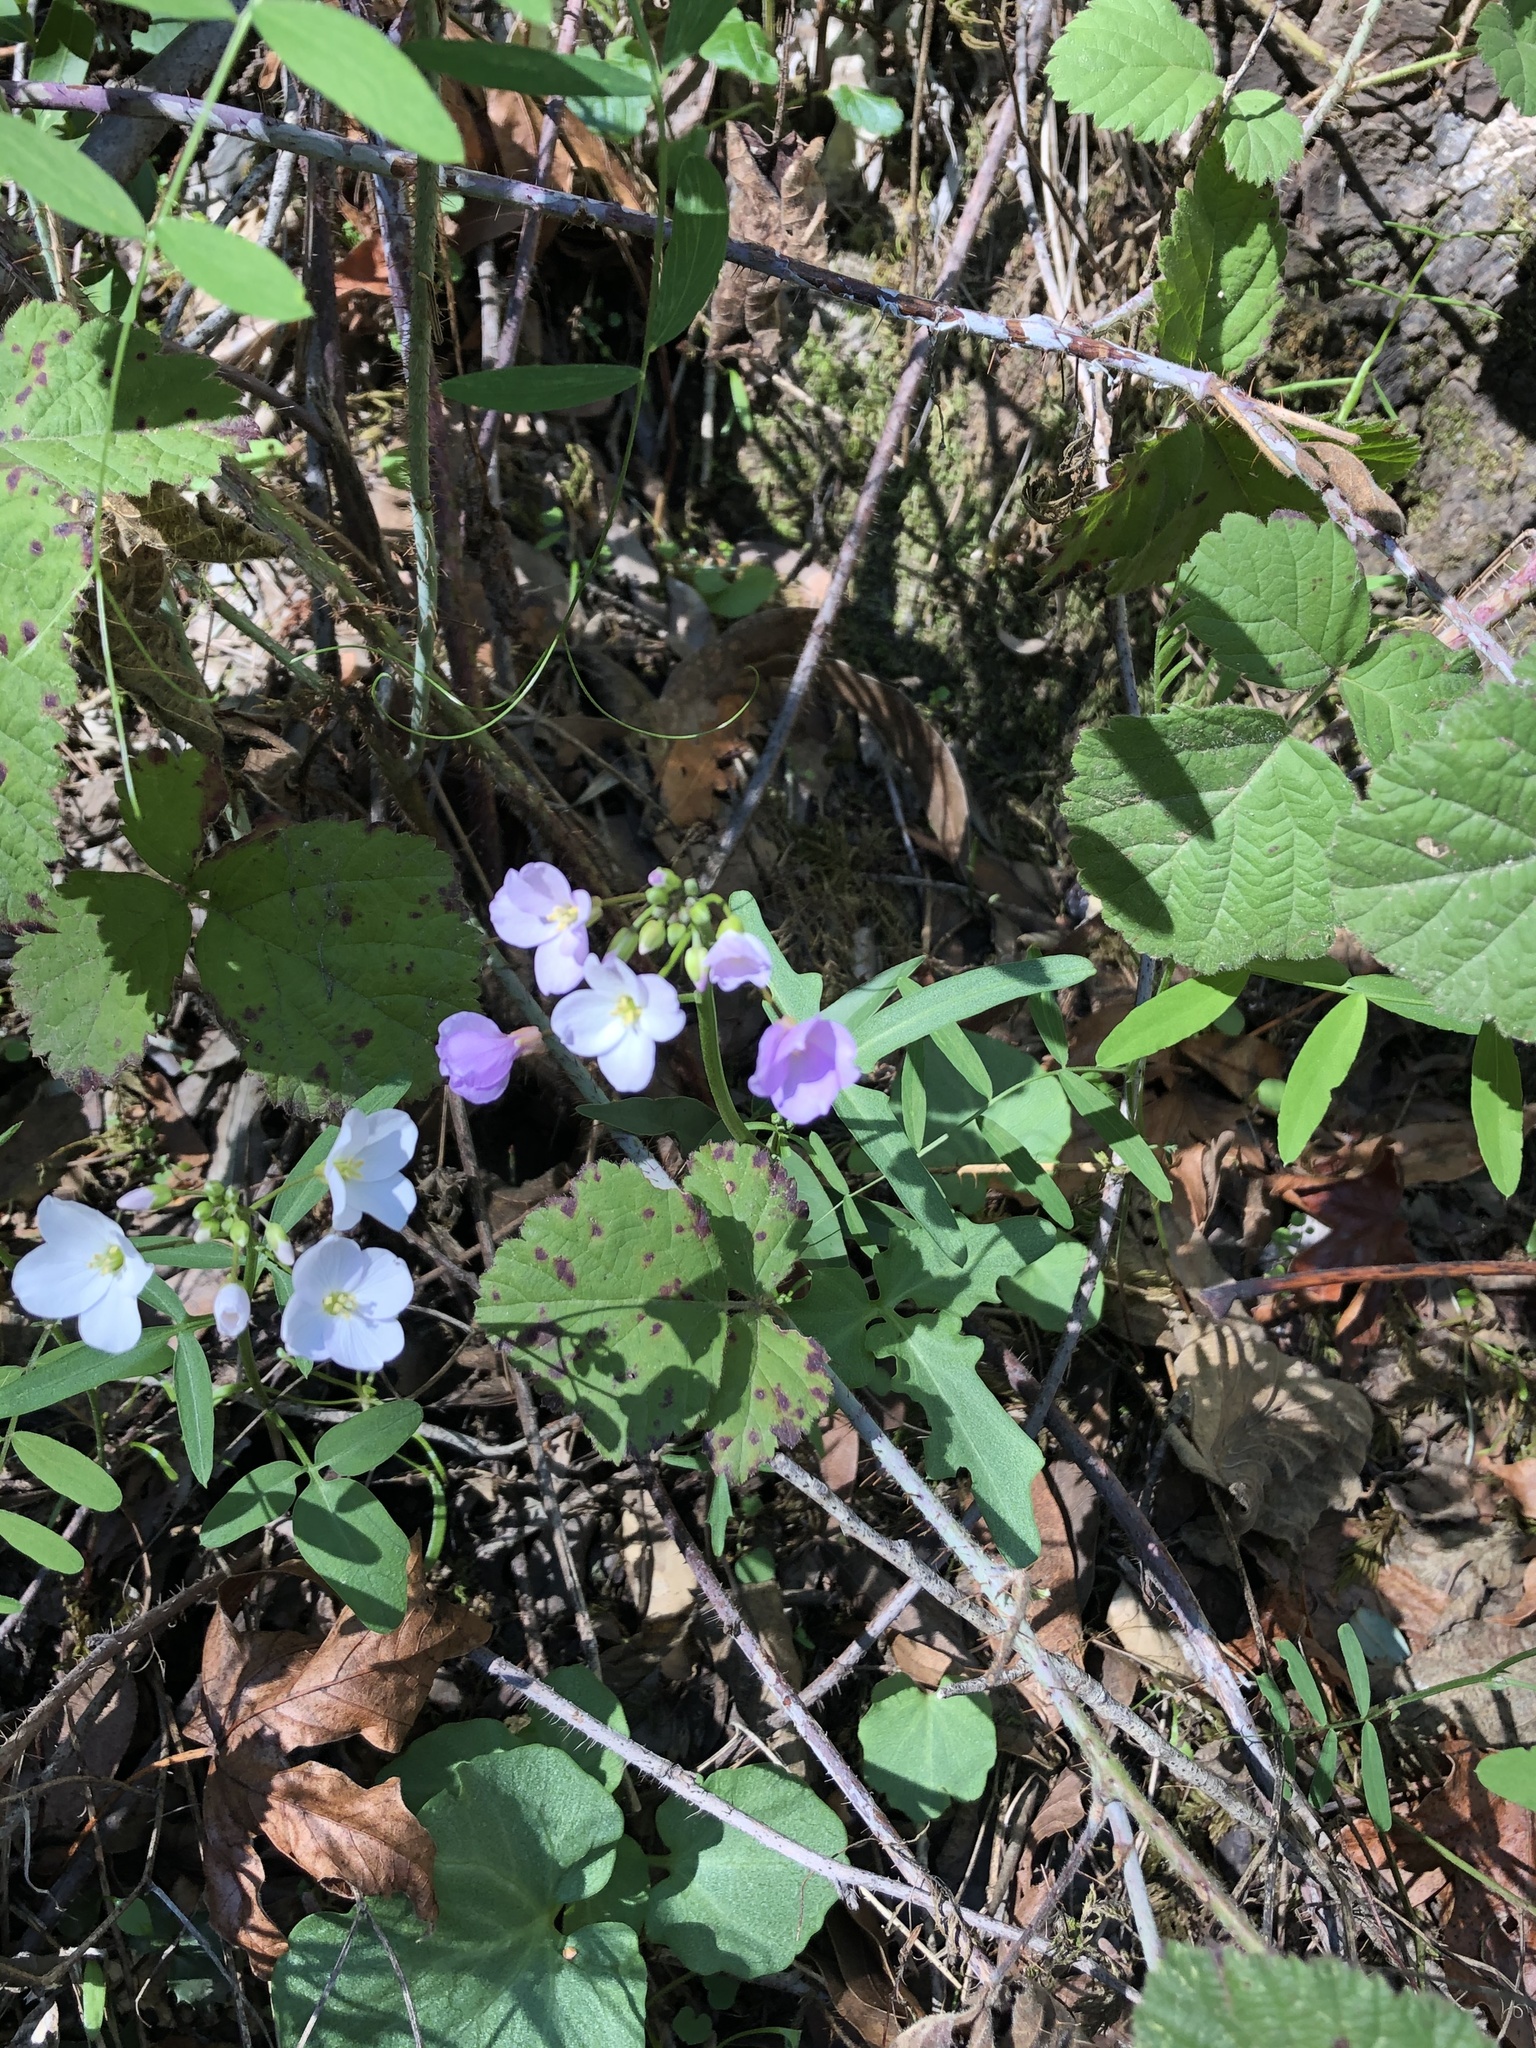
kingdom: Plantae
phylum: Tracheophyta
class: Magnoliopsida
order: Brassicales
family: Brassicaceae
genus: Cardamine
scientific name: Cardamine californica
